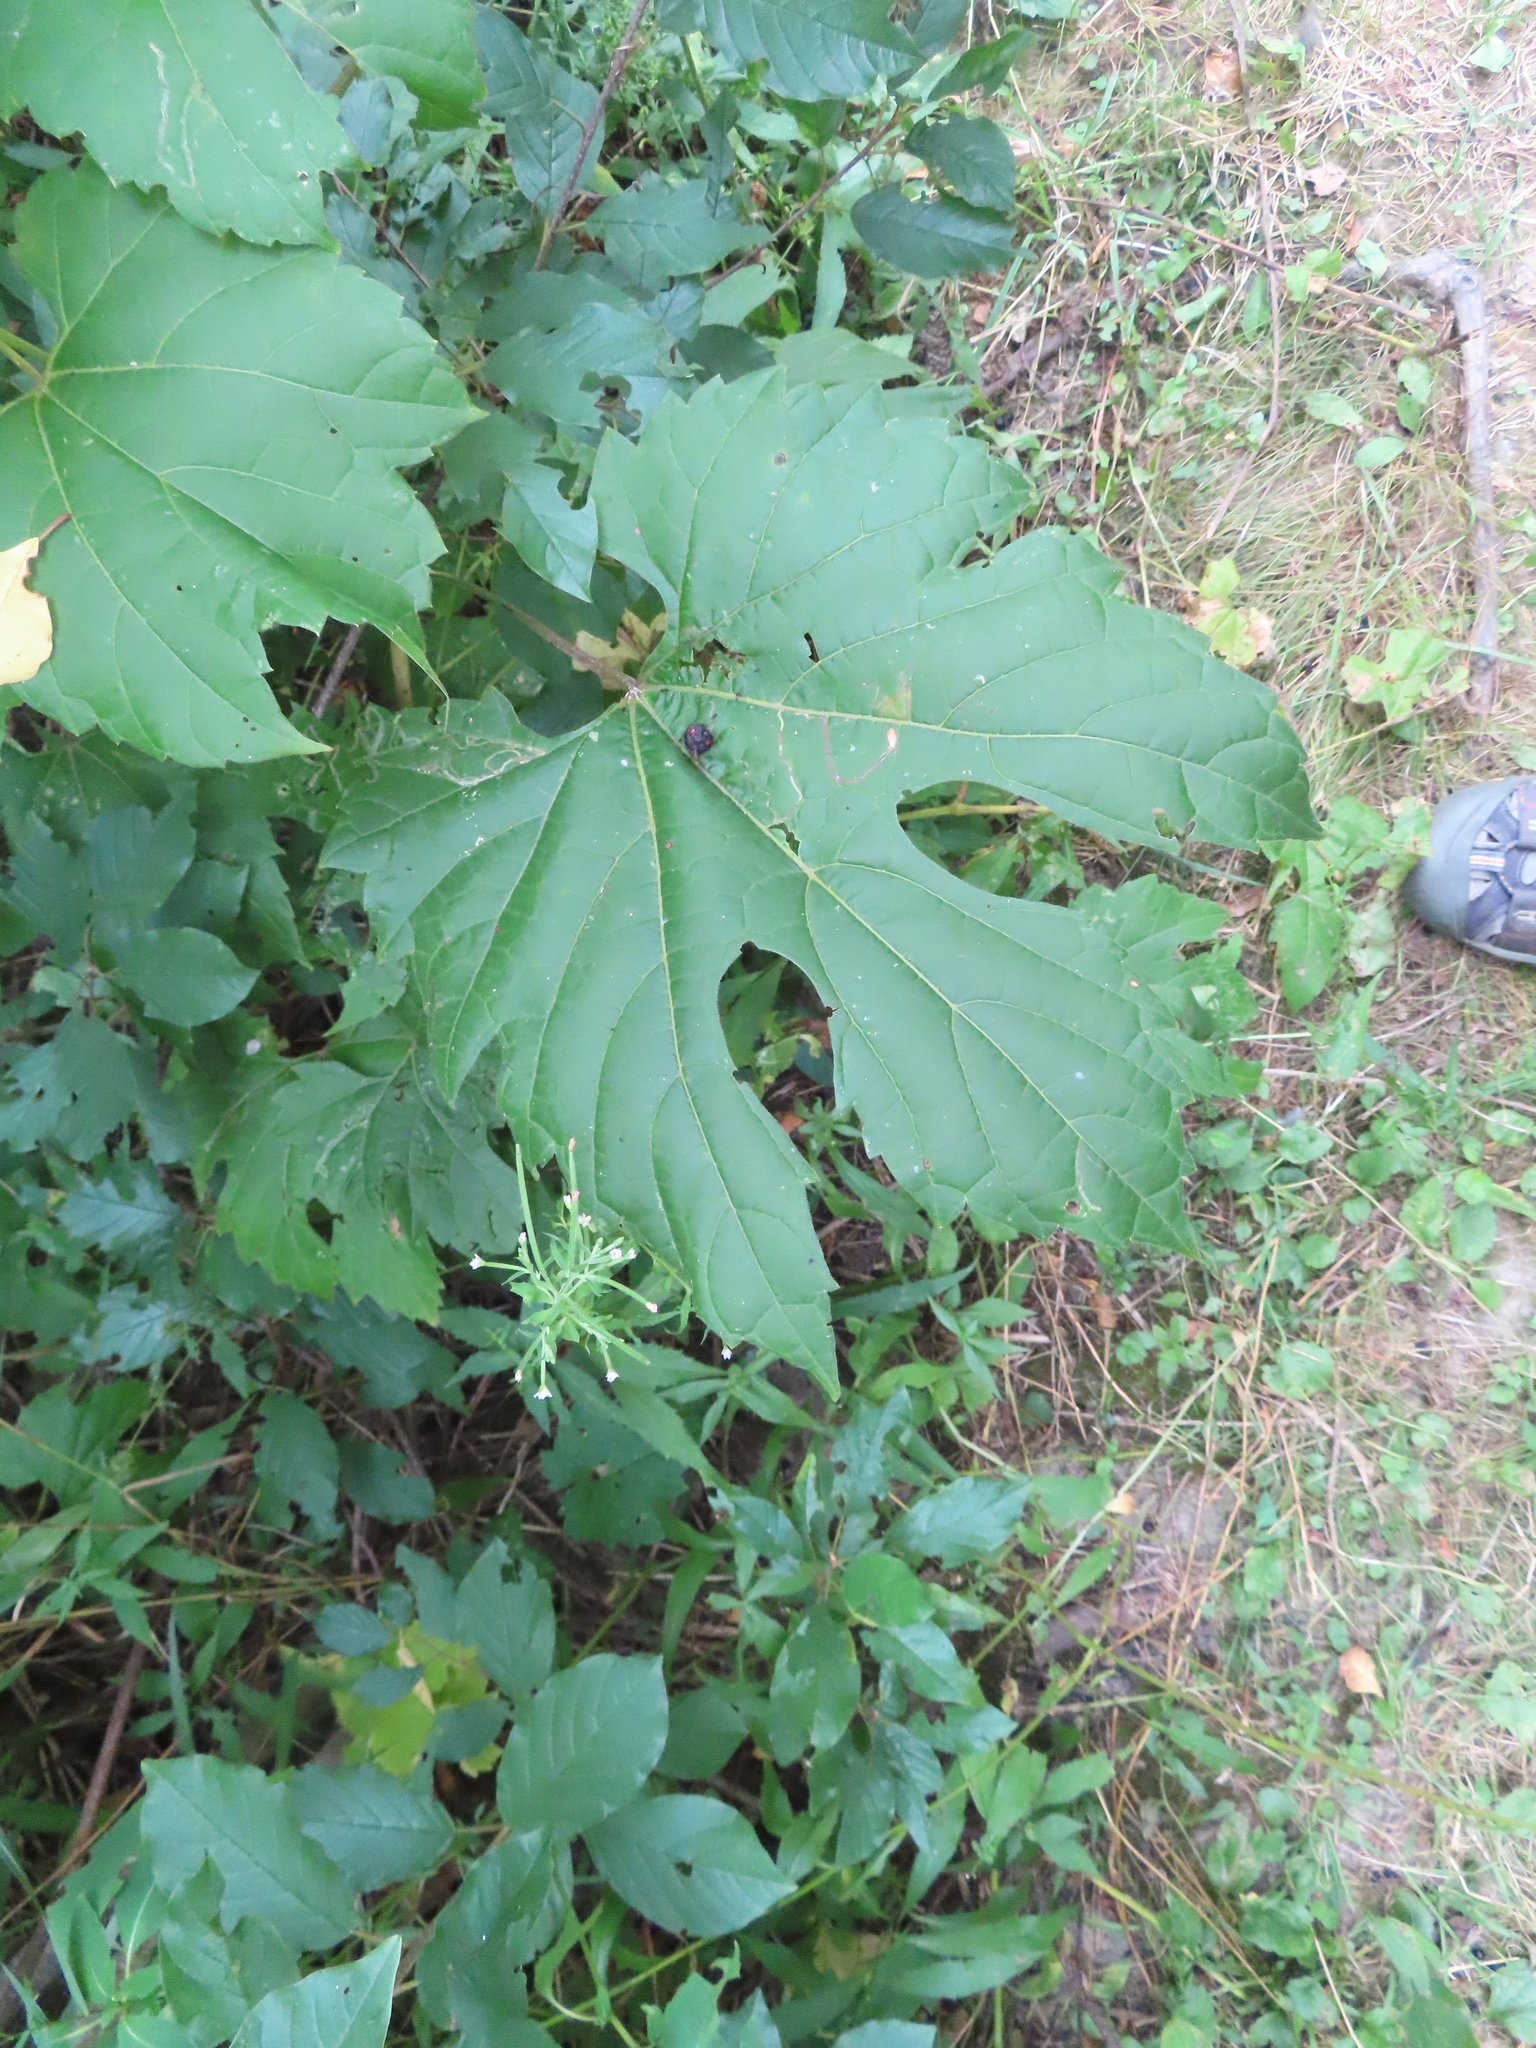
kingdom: Plantae
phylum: Tracheophyta
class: Magnoliopsida
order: Vitales
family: Vitaceae
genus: Vitis
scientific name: Vitis riparia
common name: Frost grape
